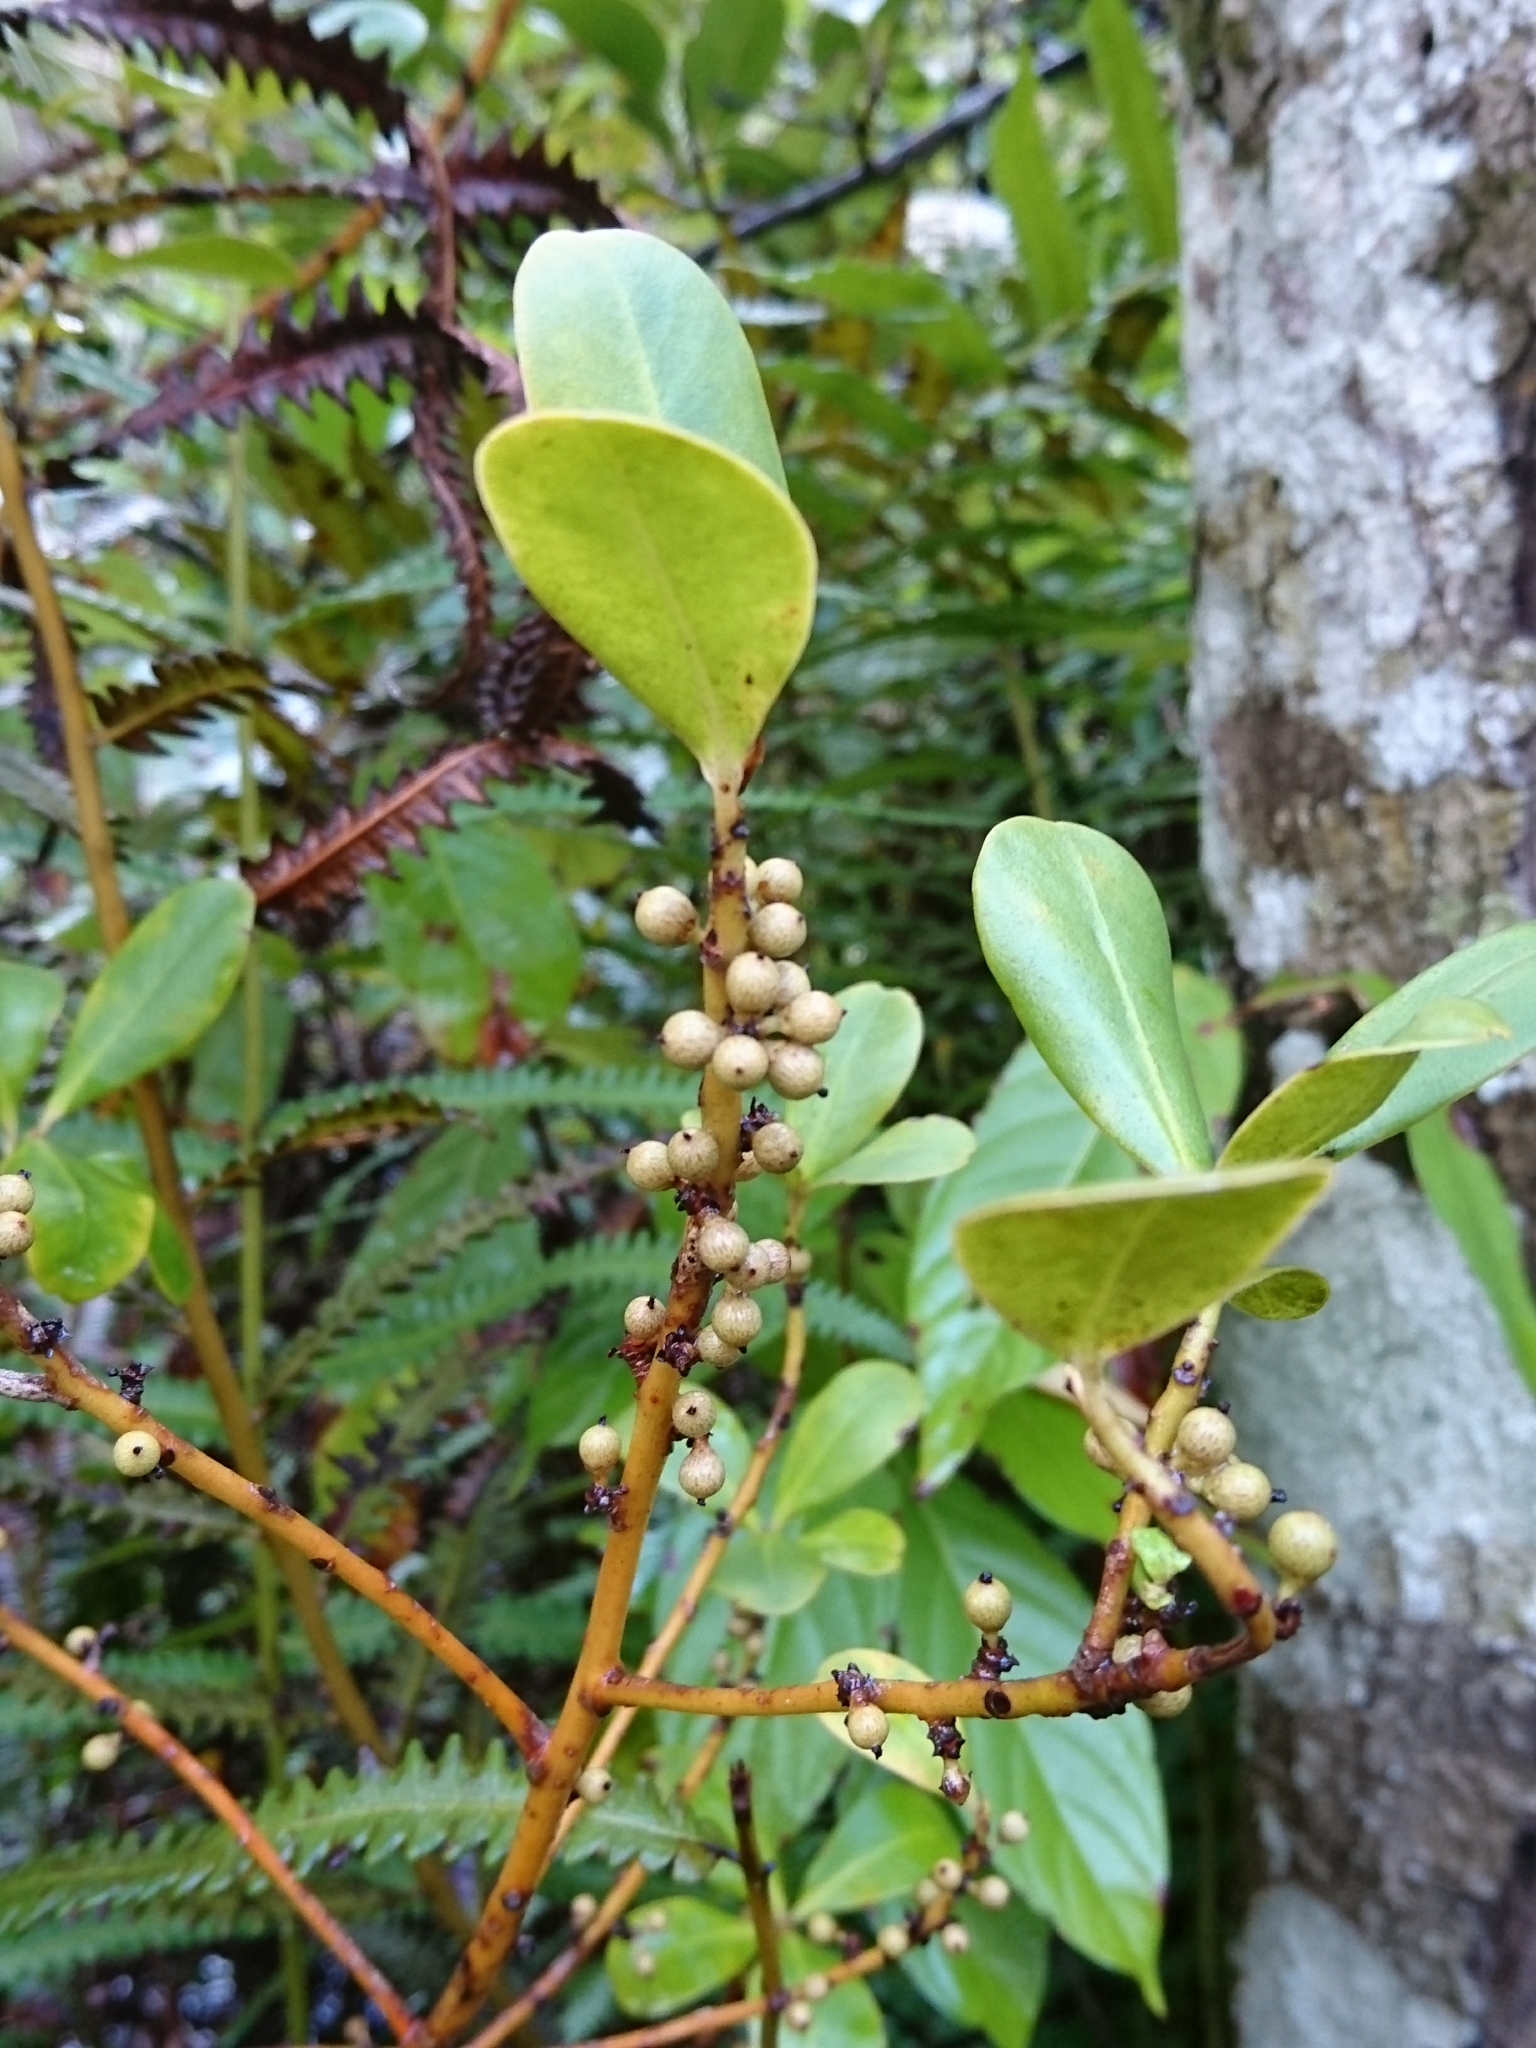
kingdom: Plantae
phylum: Tracheophyta
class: Magnoliopsida
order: Ericales
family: Primulaceae
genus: Myrsine
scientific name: Myrsine floridana
